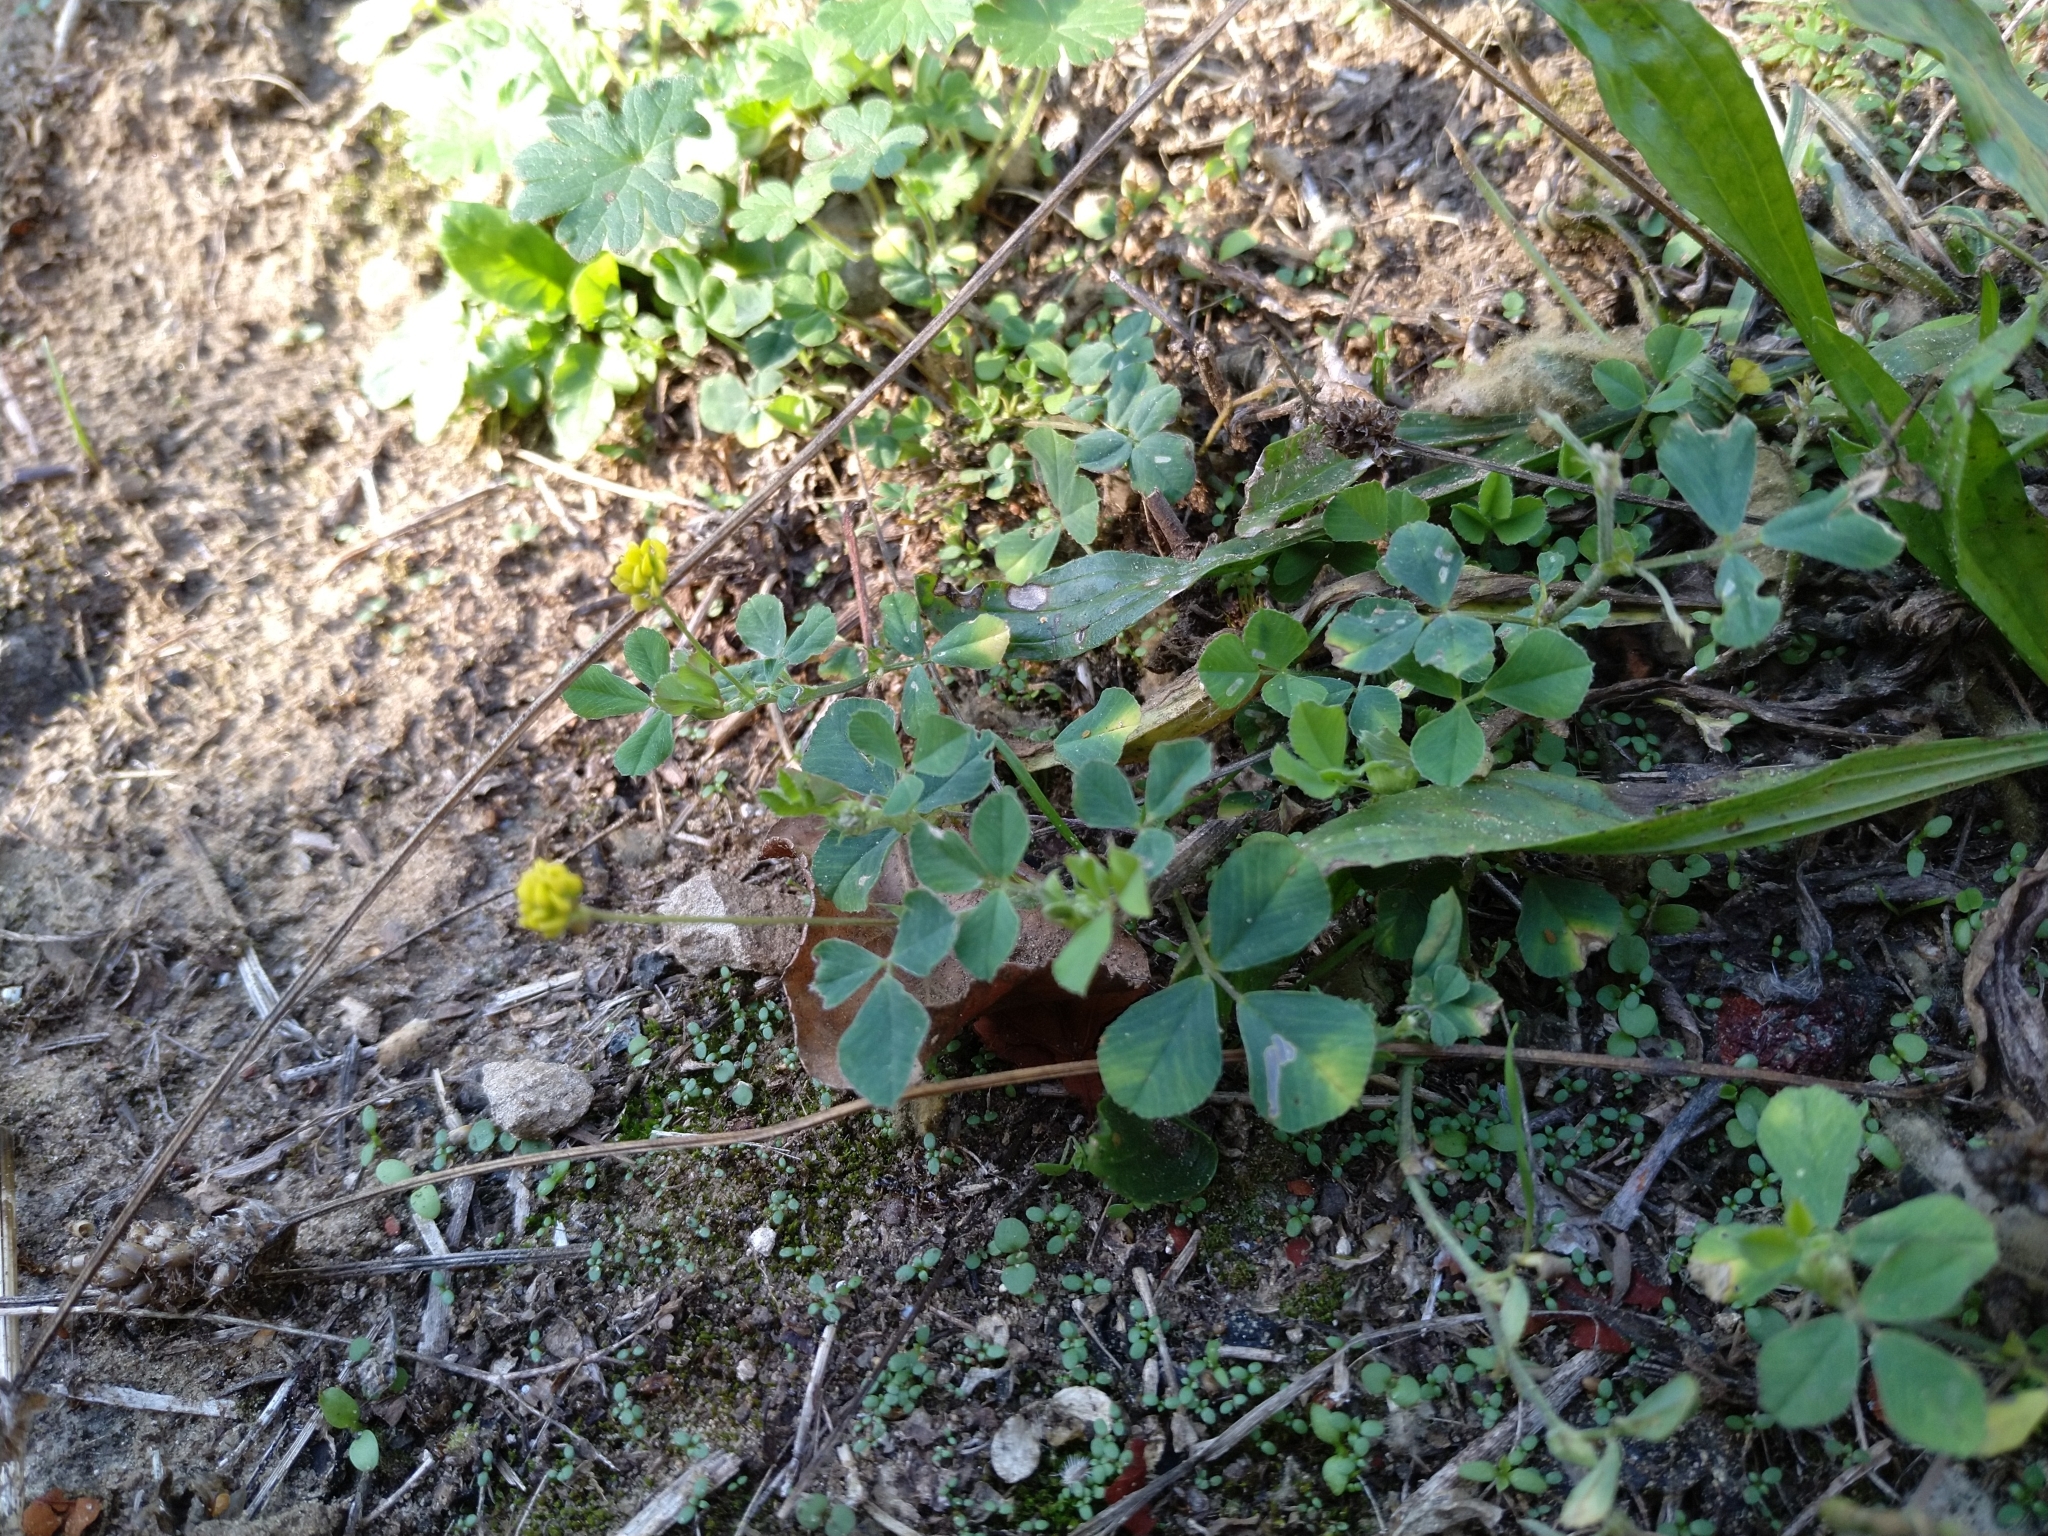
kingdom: Plantae
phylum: Tracheophyta
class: Magnoliopsida
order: Fabales
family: Fabaceae
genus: Medicago
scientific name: Medicago lupulina
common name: Black medick
